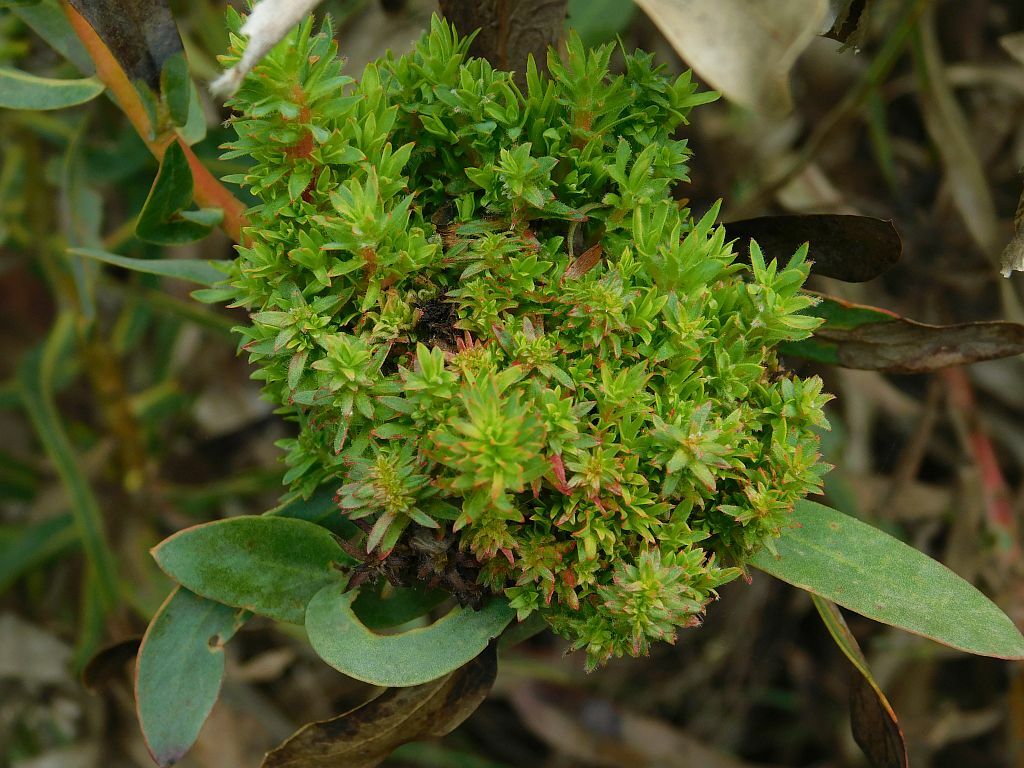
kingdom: Bacteria
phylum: Firmicutes
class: Bacilli
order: Acholeplasmatales
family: Acholeplasmataceae
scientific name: Acholeplasmataceae
